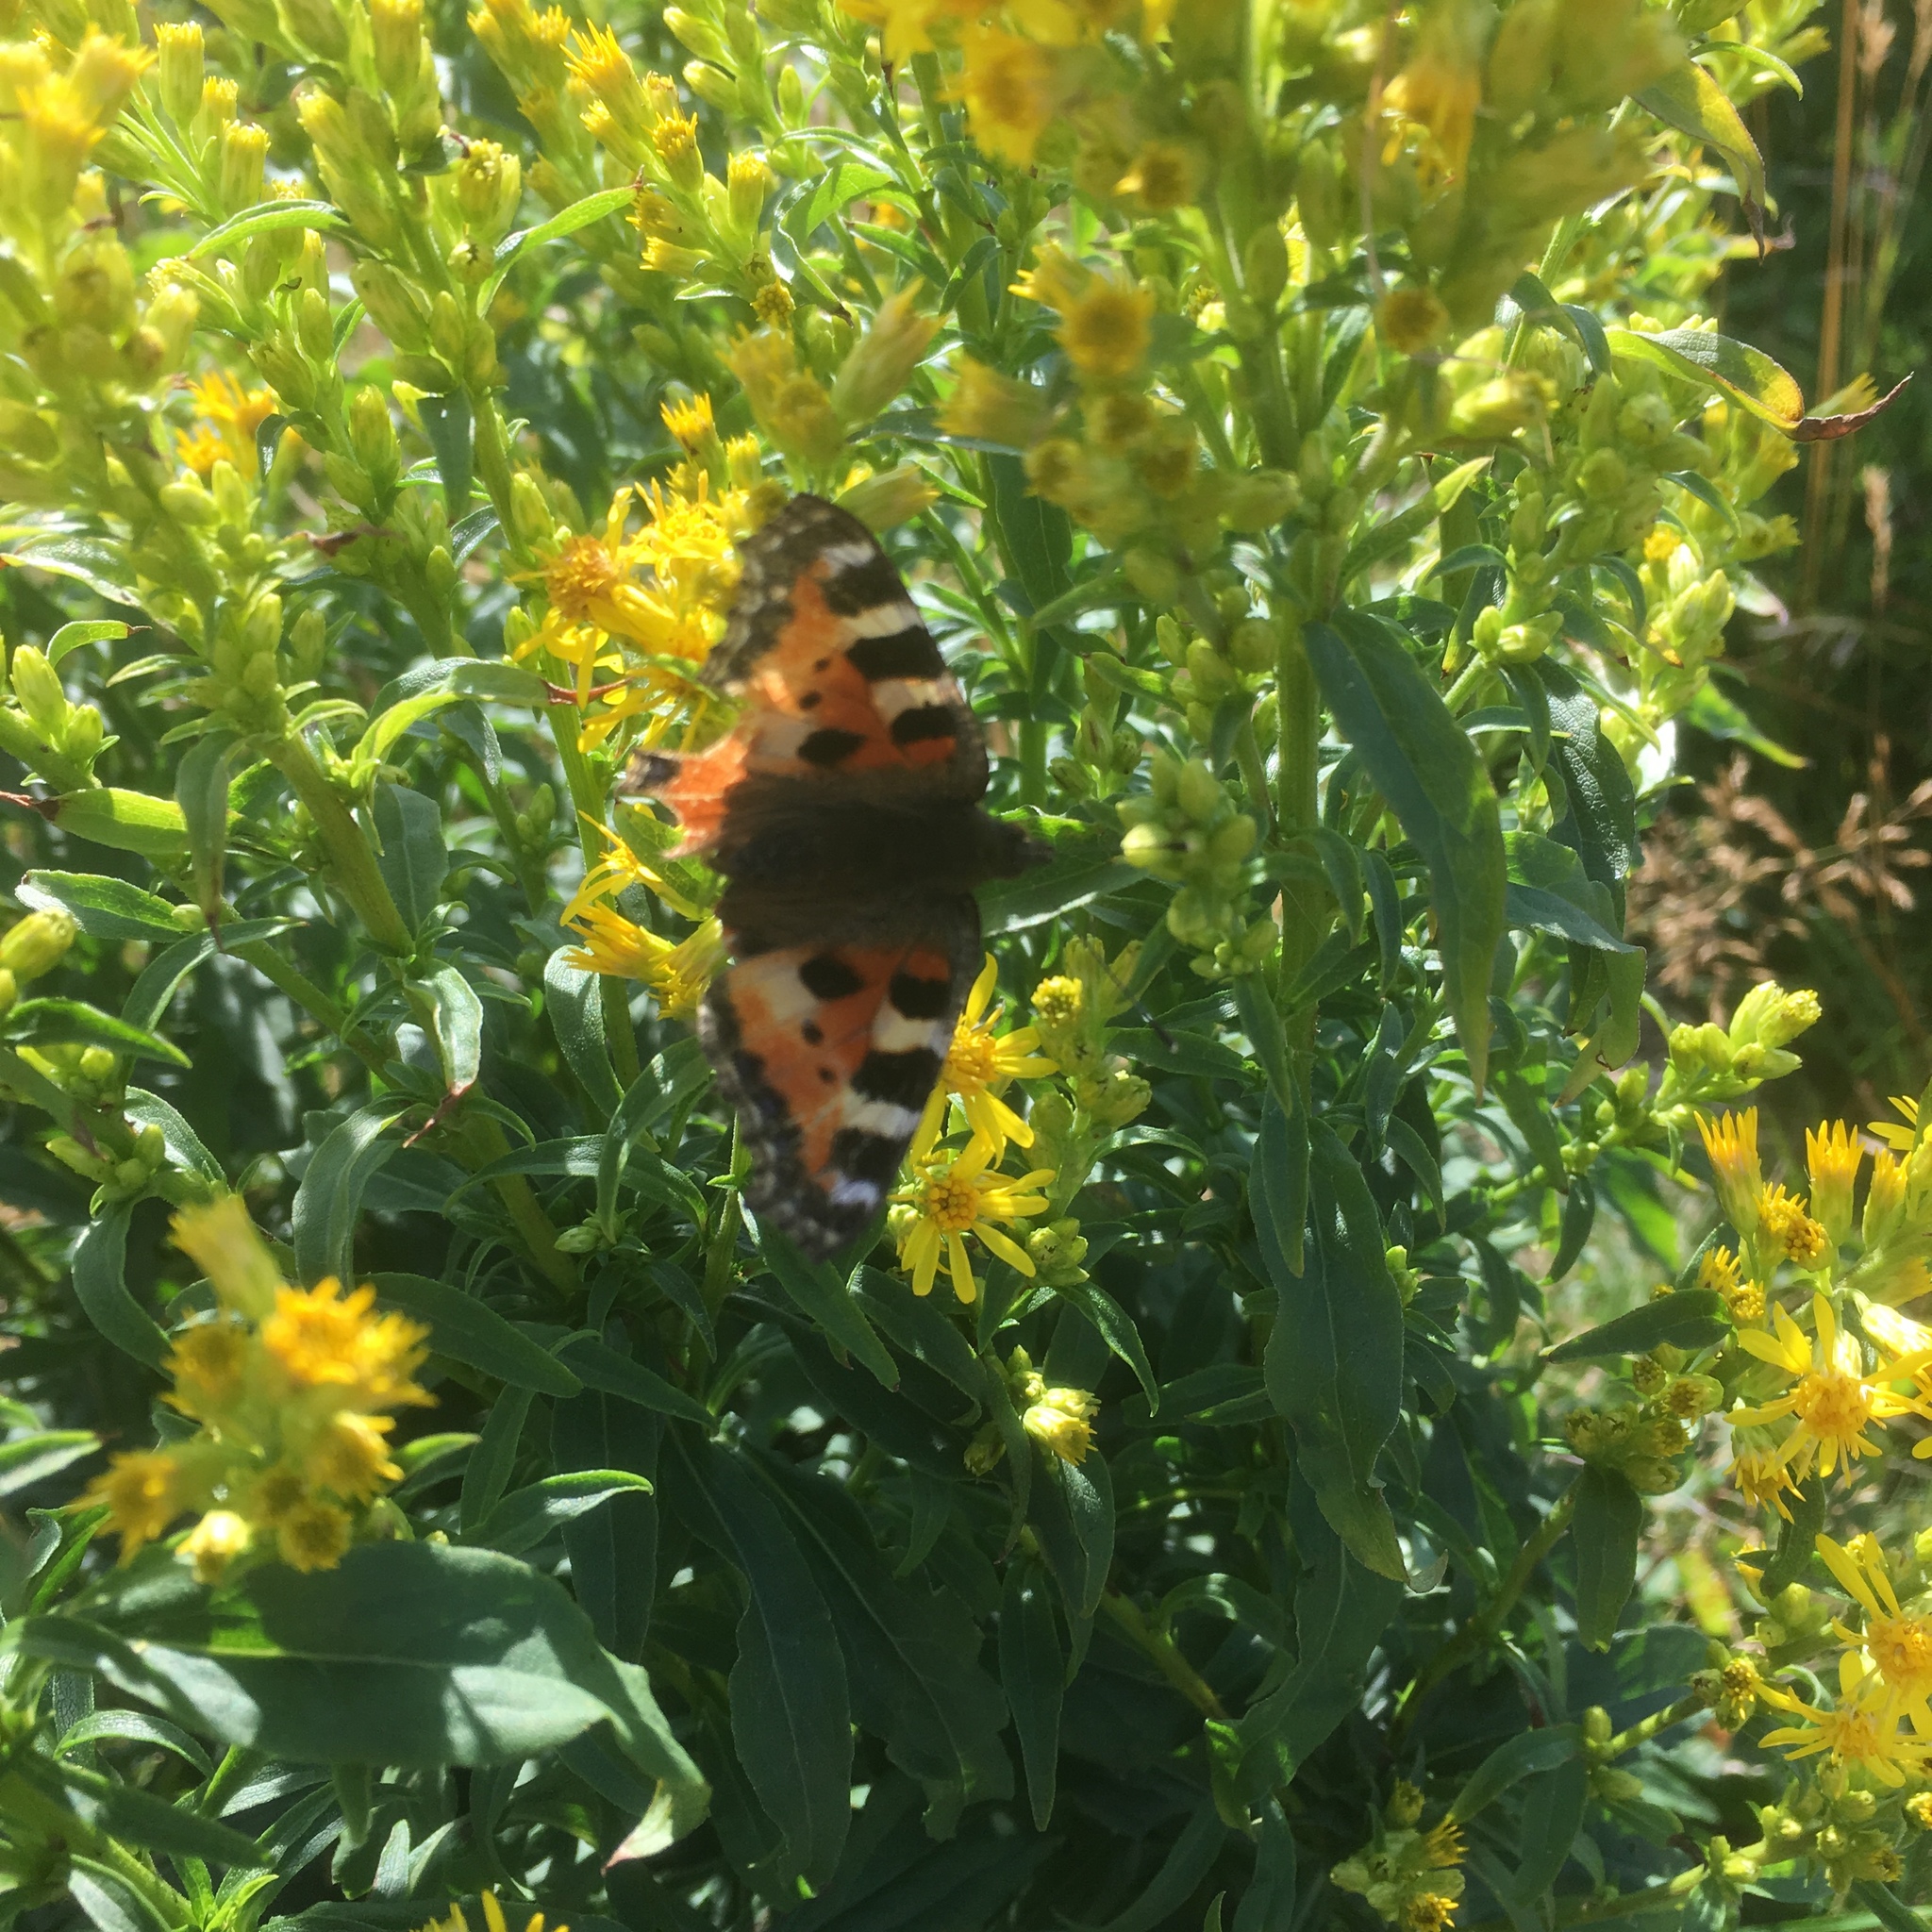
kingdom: Animalia
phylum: Arthropoda
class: Insecta
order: Lepidoptera
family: Nymphalidae
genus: Aglais
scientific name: Aglais urticae
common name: Small tortoiseshell
